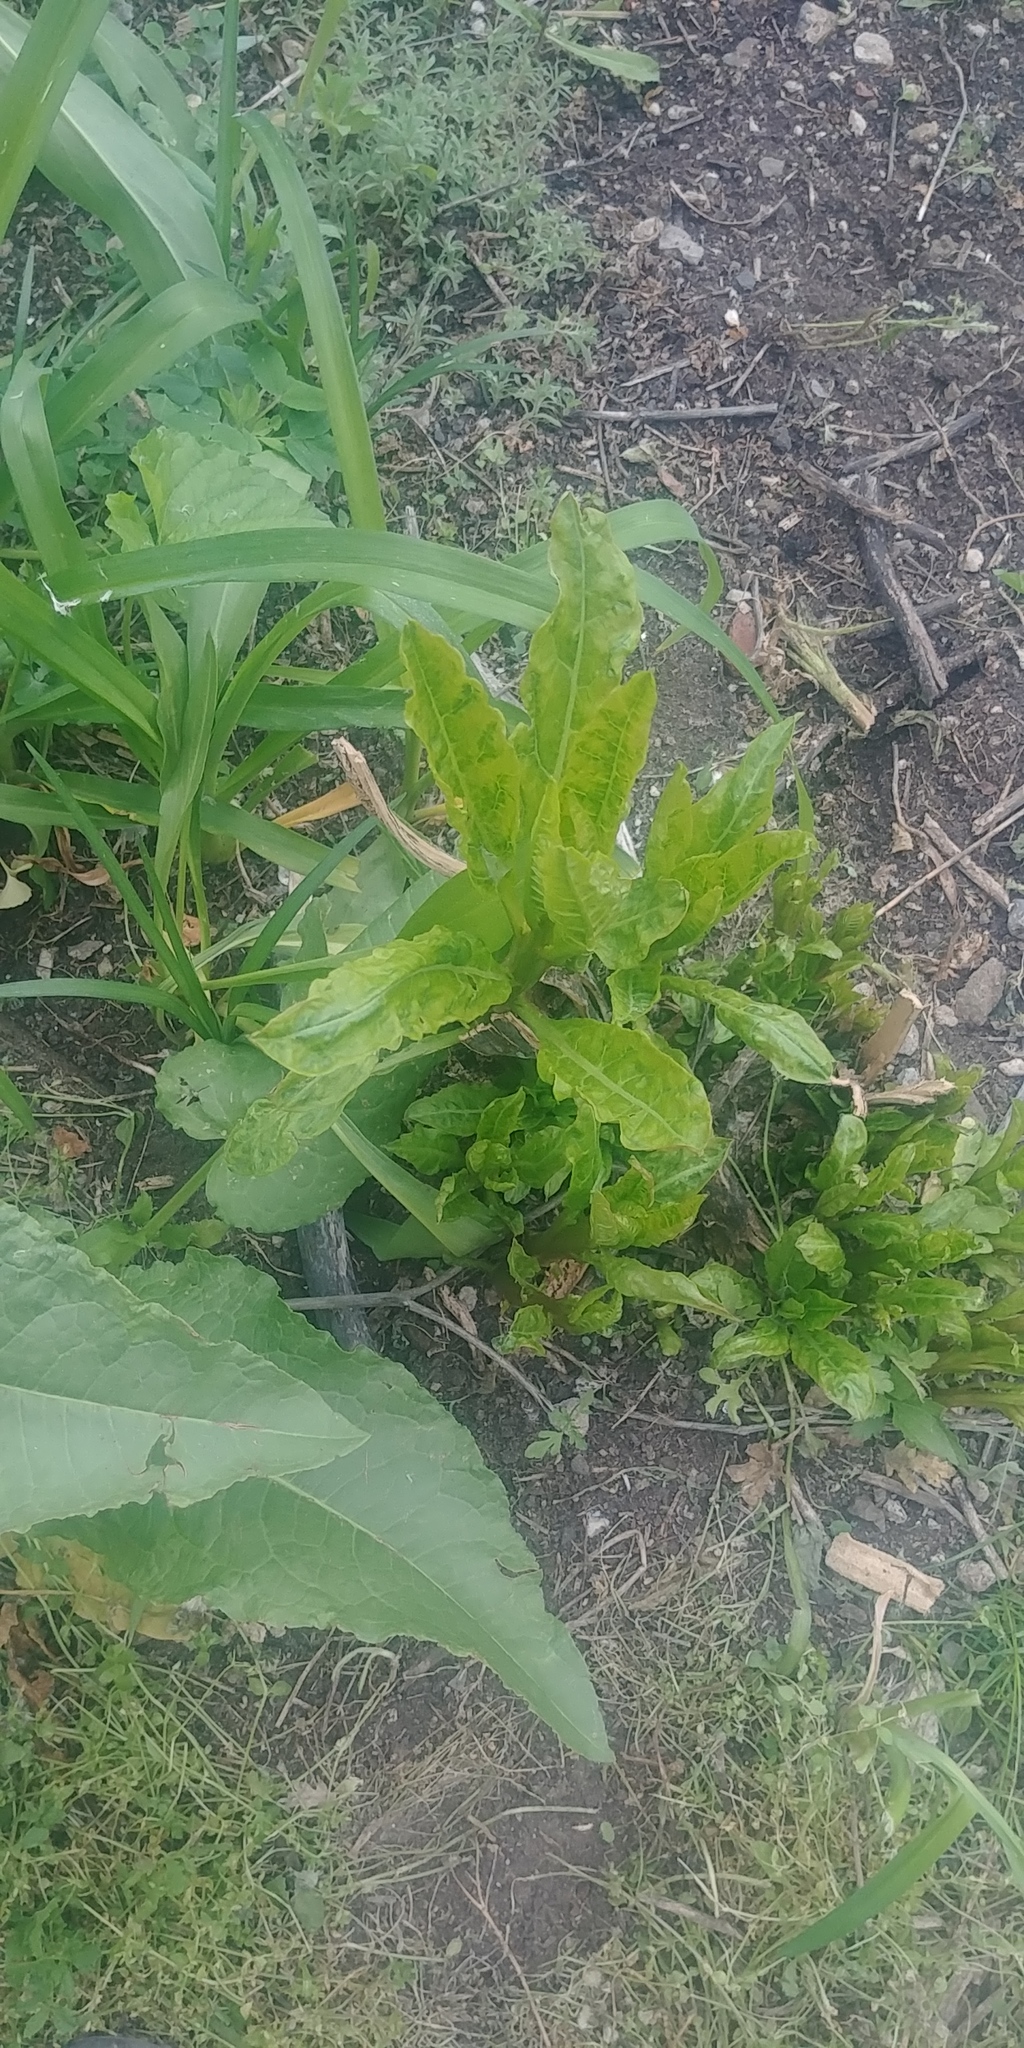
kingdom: Plantae
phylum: Tracheophyta
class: Magnoliopsida
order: Caryophyllales
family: Phytolaccaceae
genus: Phytolacca
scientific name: Phytolacca americana
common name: American pokeweed
